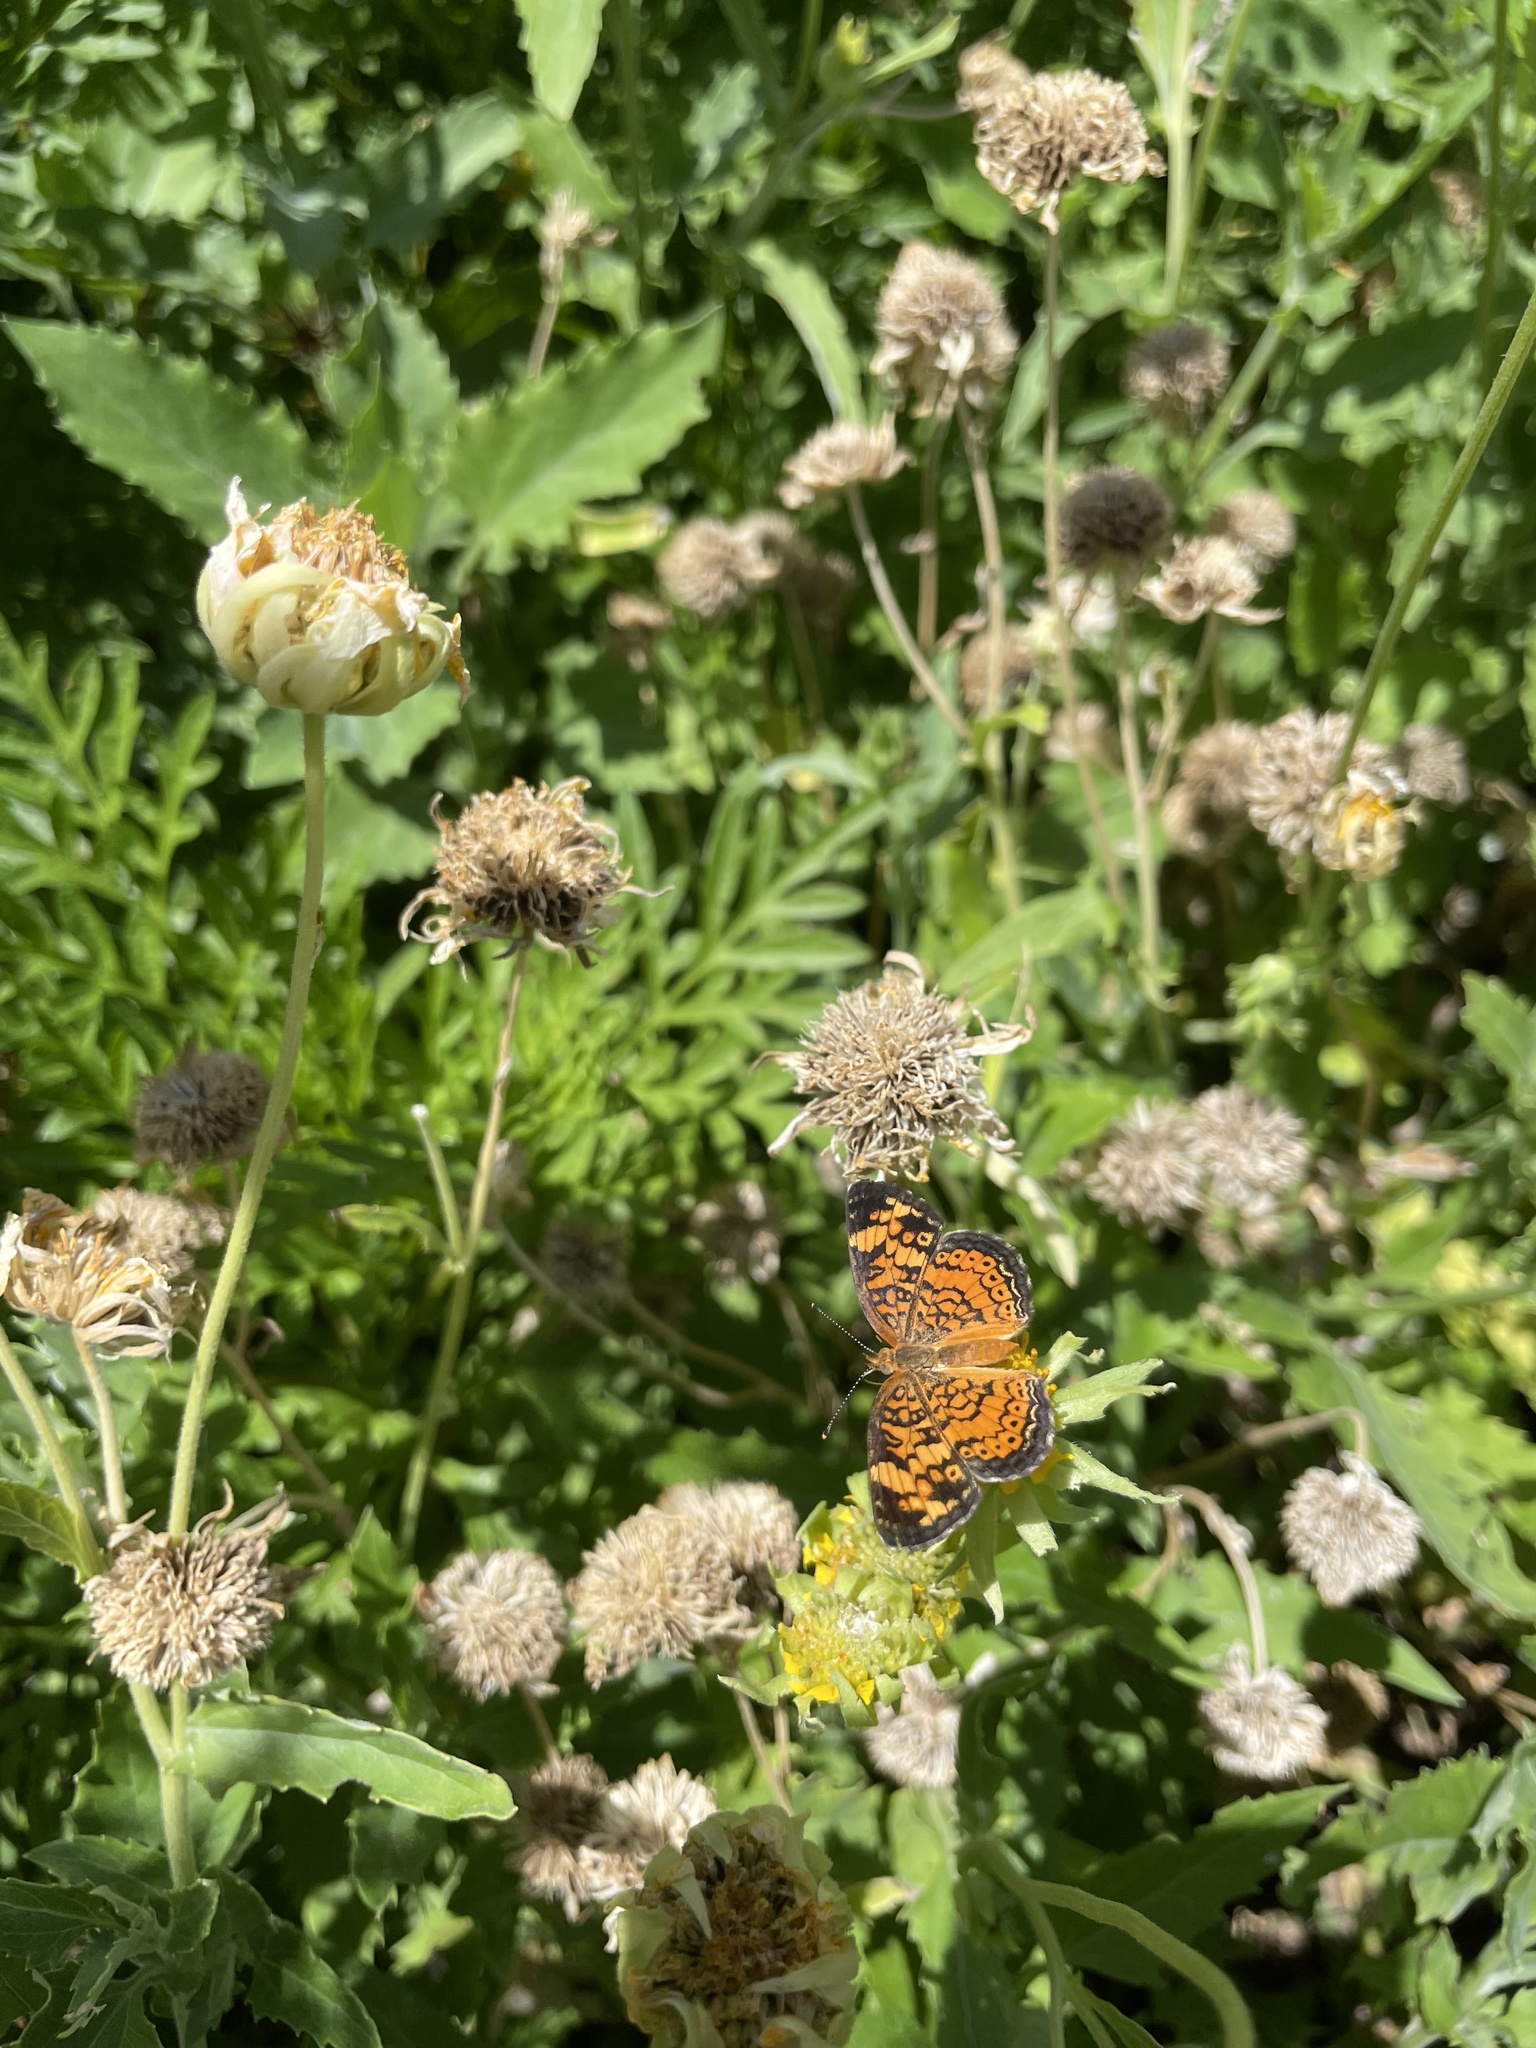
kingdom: Animalia
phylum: Arthropoda
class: Insecta
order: Lepidoptera
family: Nymphalidae
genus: Phyciodes
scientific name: Phyciodes tharos
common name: Pearl crescent
